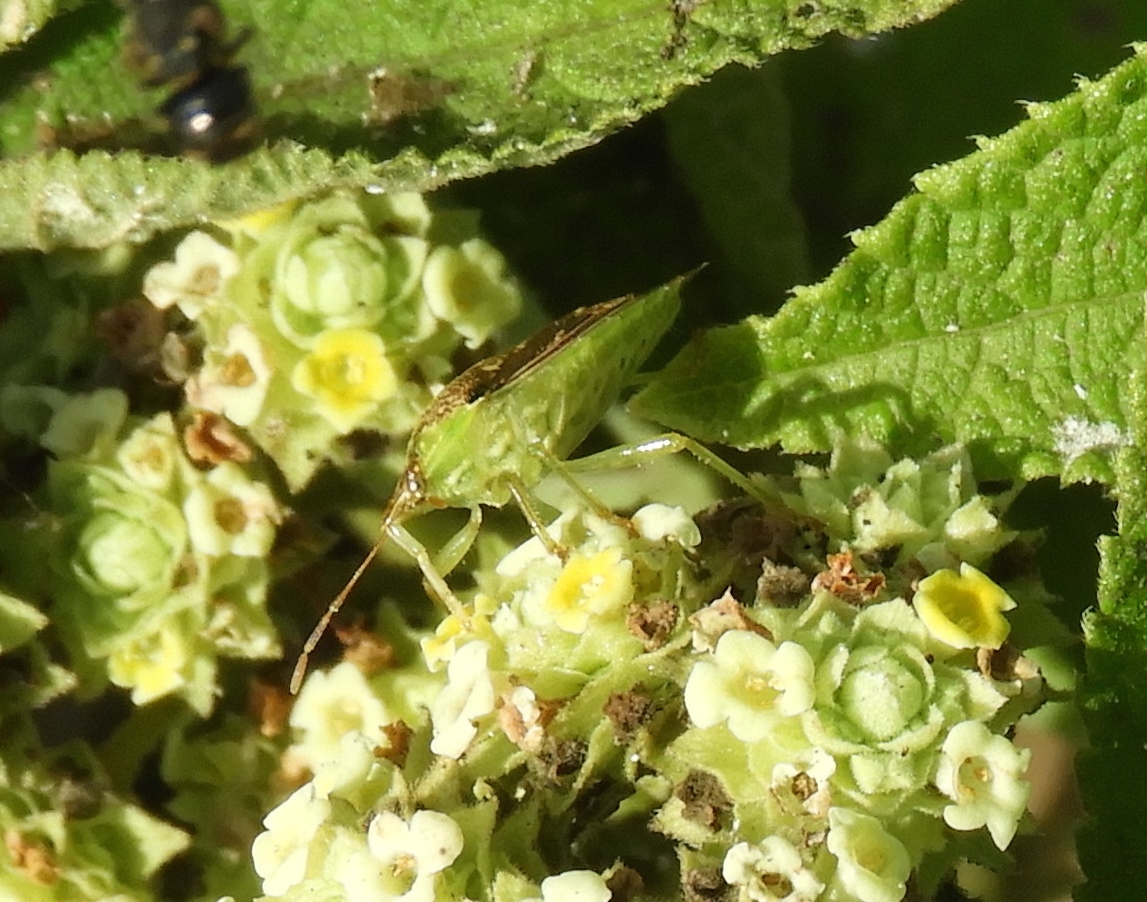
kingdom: Animalia
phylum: Arthropoda
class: Insecta
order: Hemiptera
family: Pentatomidae
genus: Tyrannocoris
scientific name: Tyrannocoris jole
